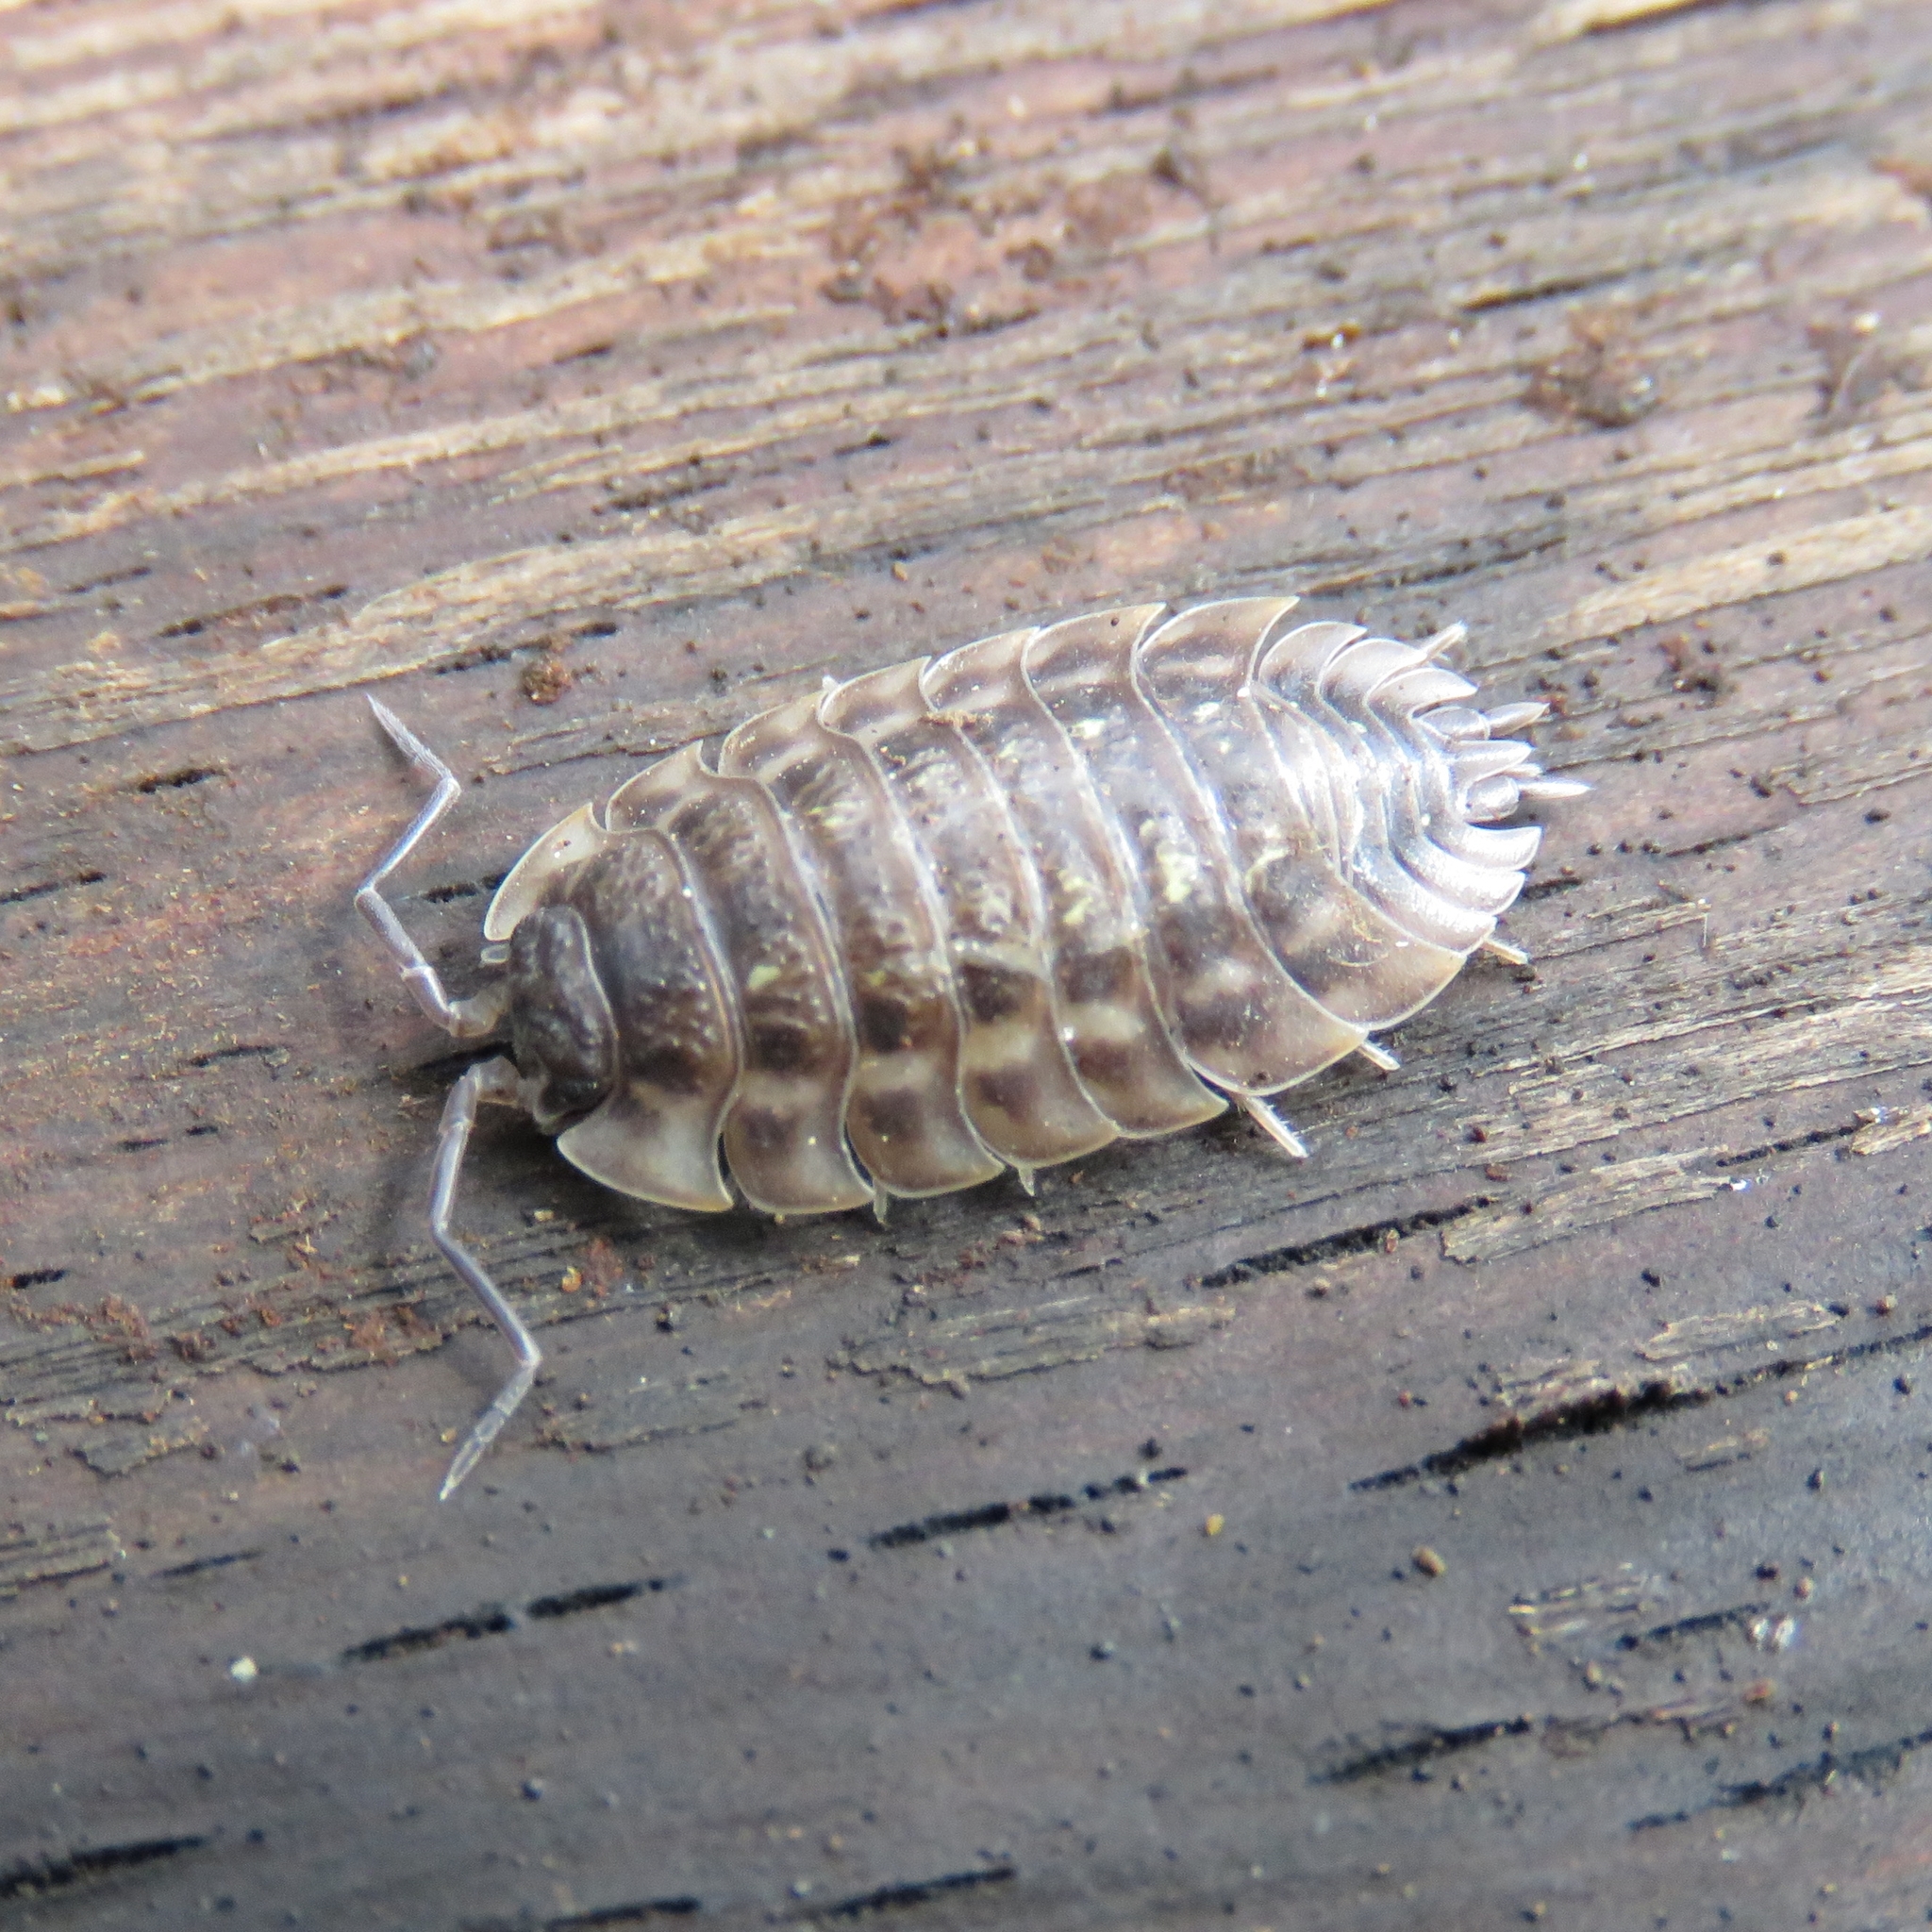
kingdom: Animalia
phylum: Arthropoda
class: Malacostraca
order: Isopoda
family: Oniscidae
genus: Oniscus
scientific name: Oniscus asellus
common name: Common shiny woodlouse
